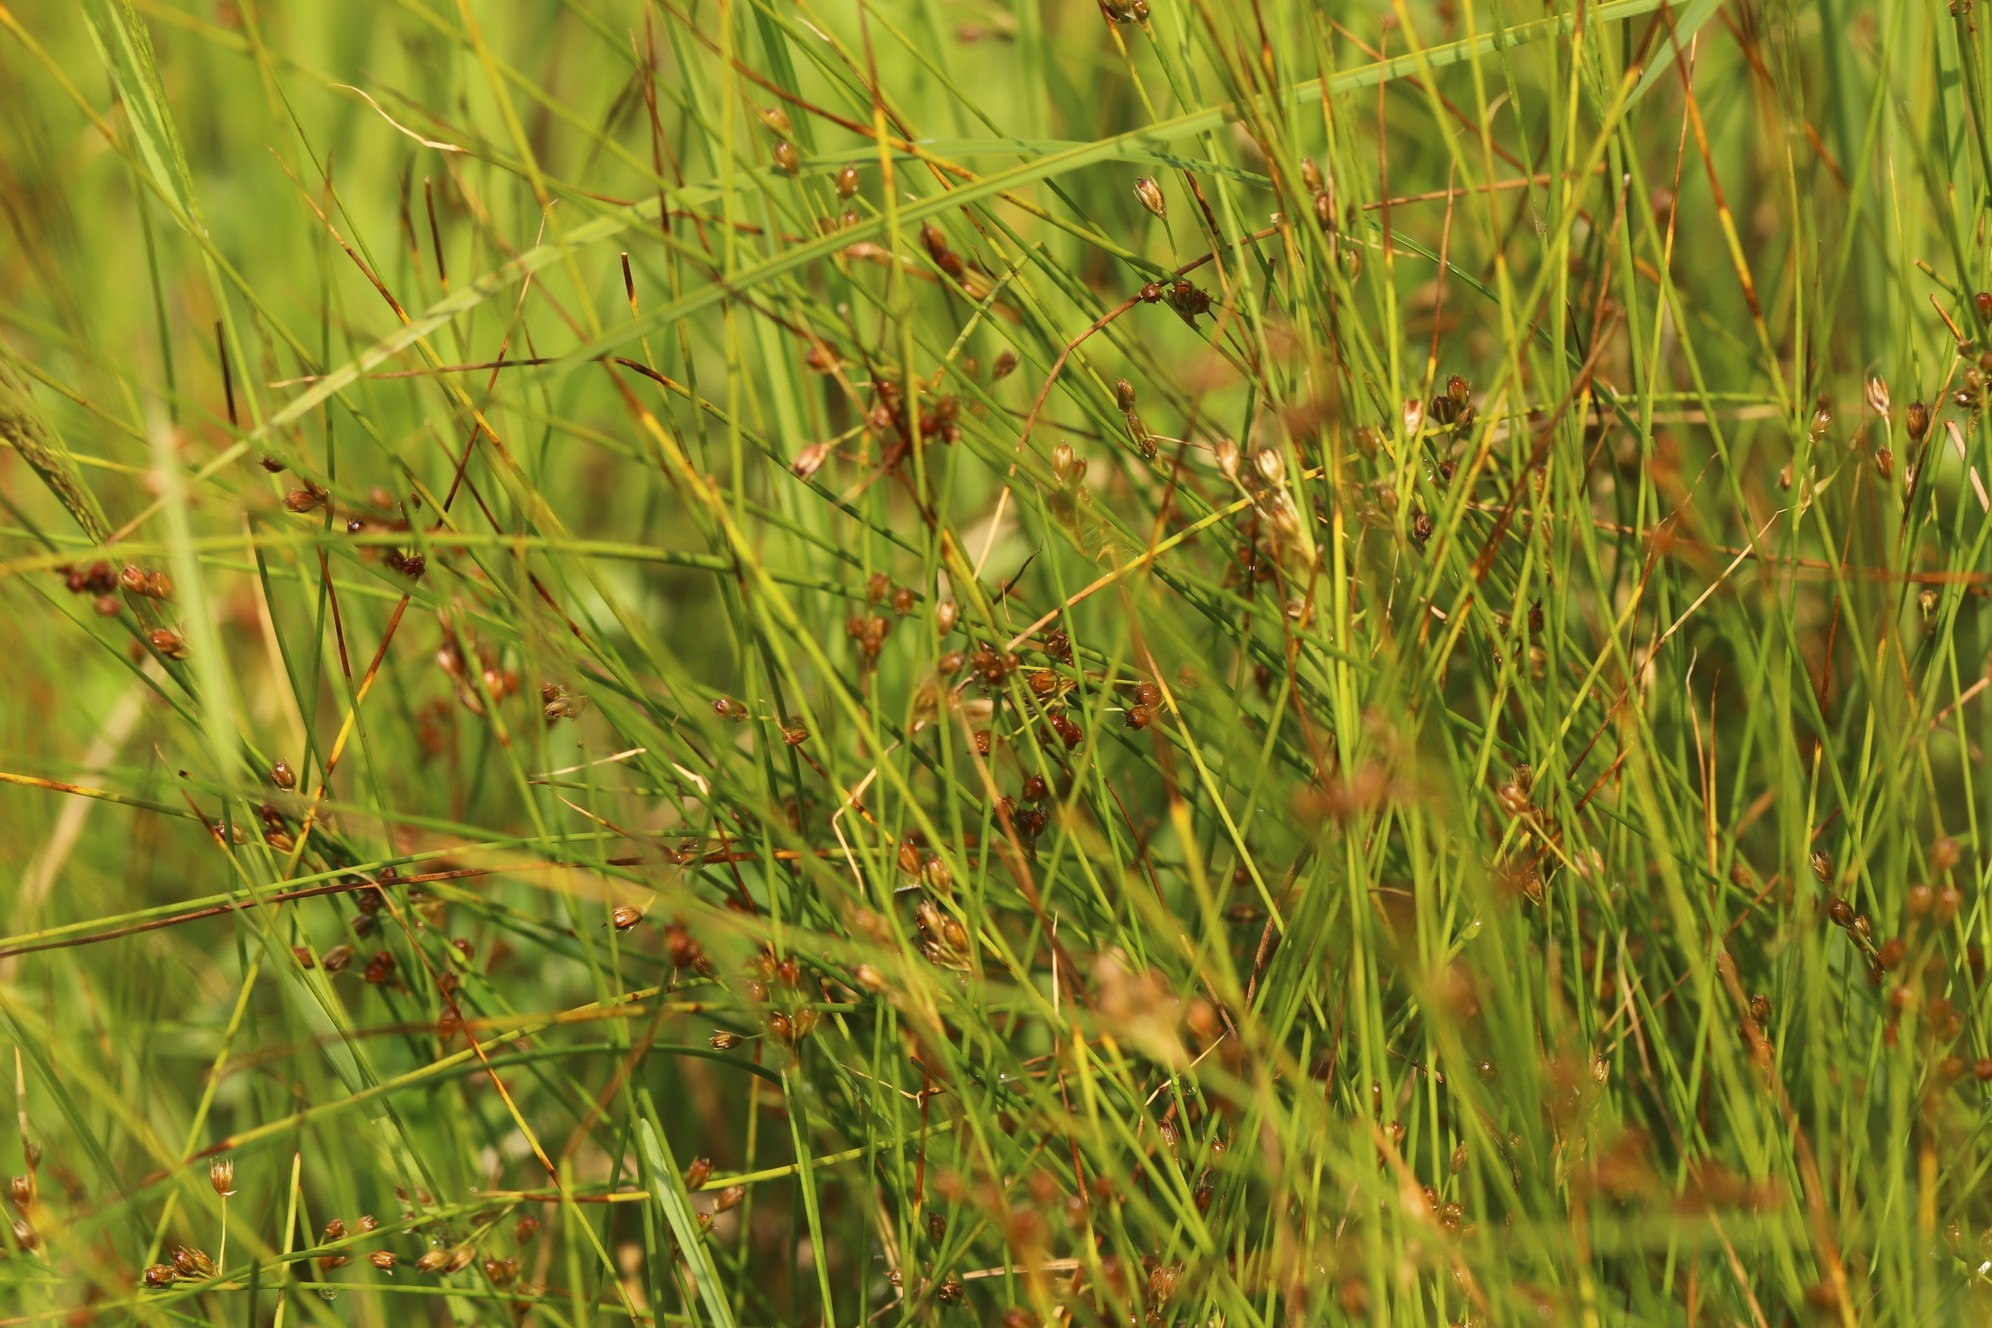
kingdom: Plantae
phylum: Tracheophyta
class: Liliopsida
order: Poales
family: Juncaceae
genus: Juncus
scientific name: Juncus filiformis
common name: Thread rush
